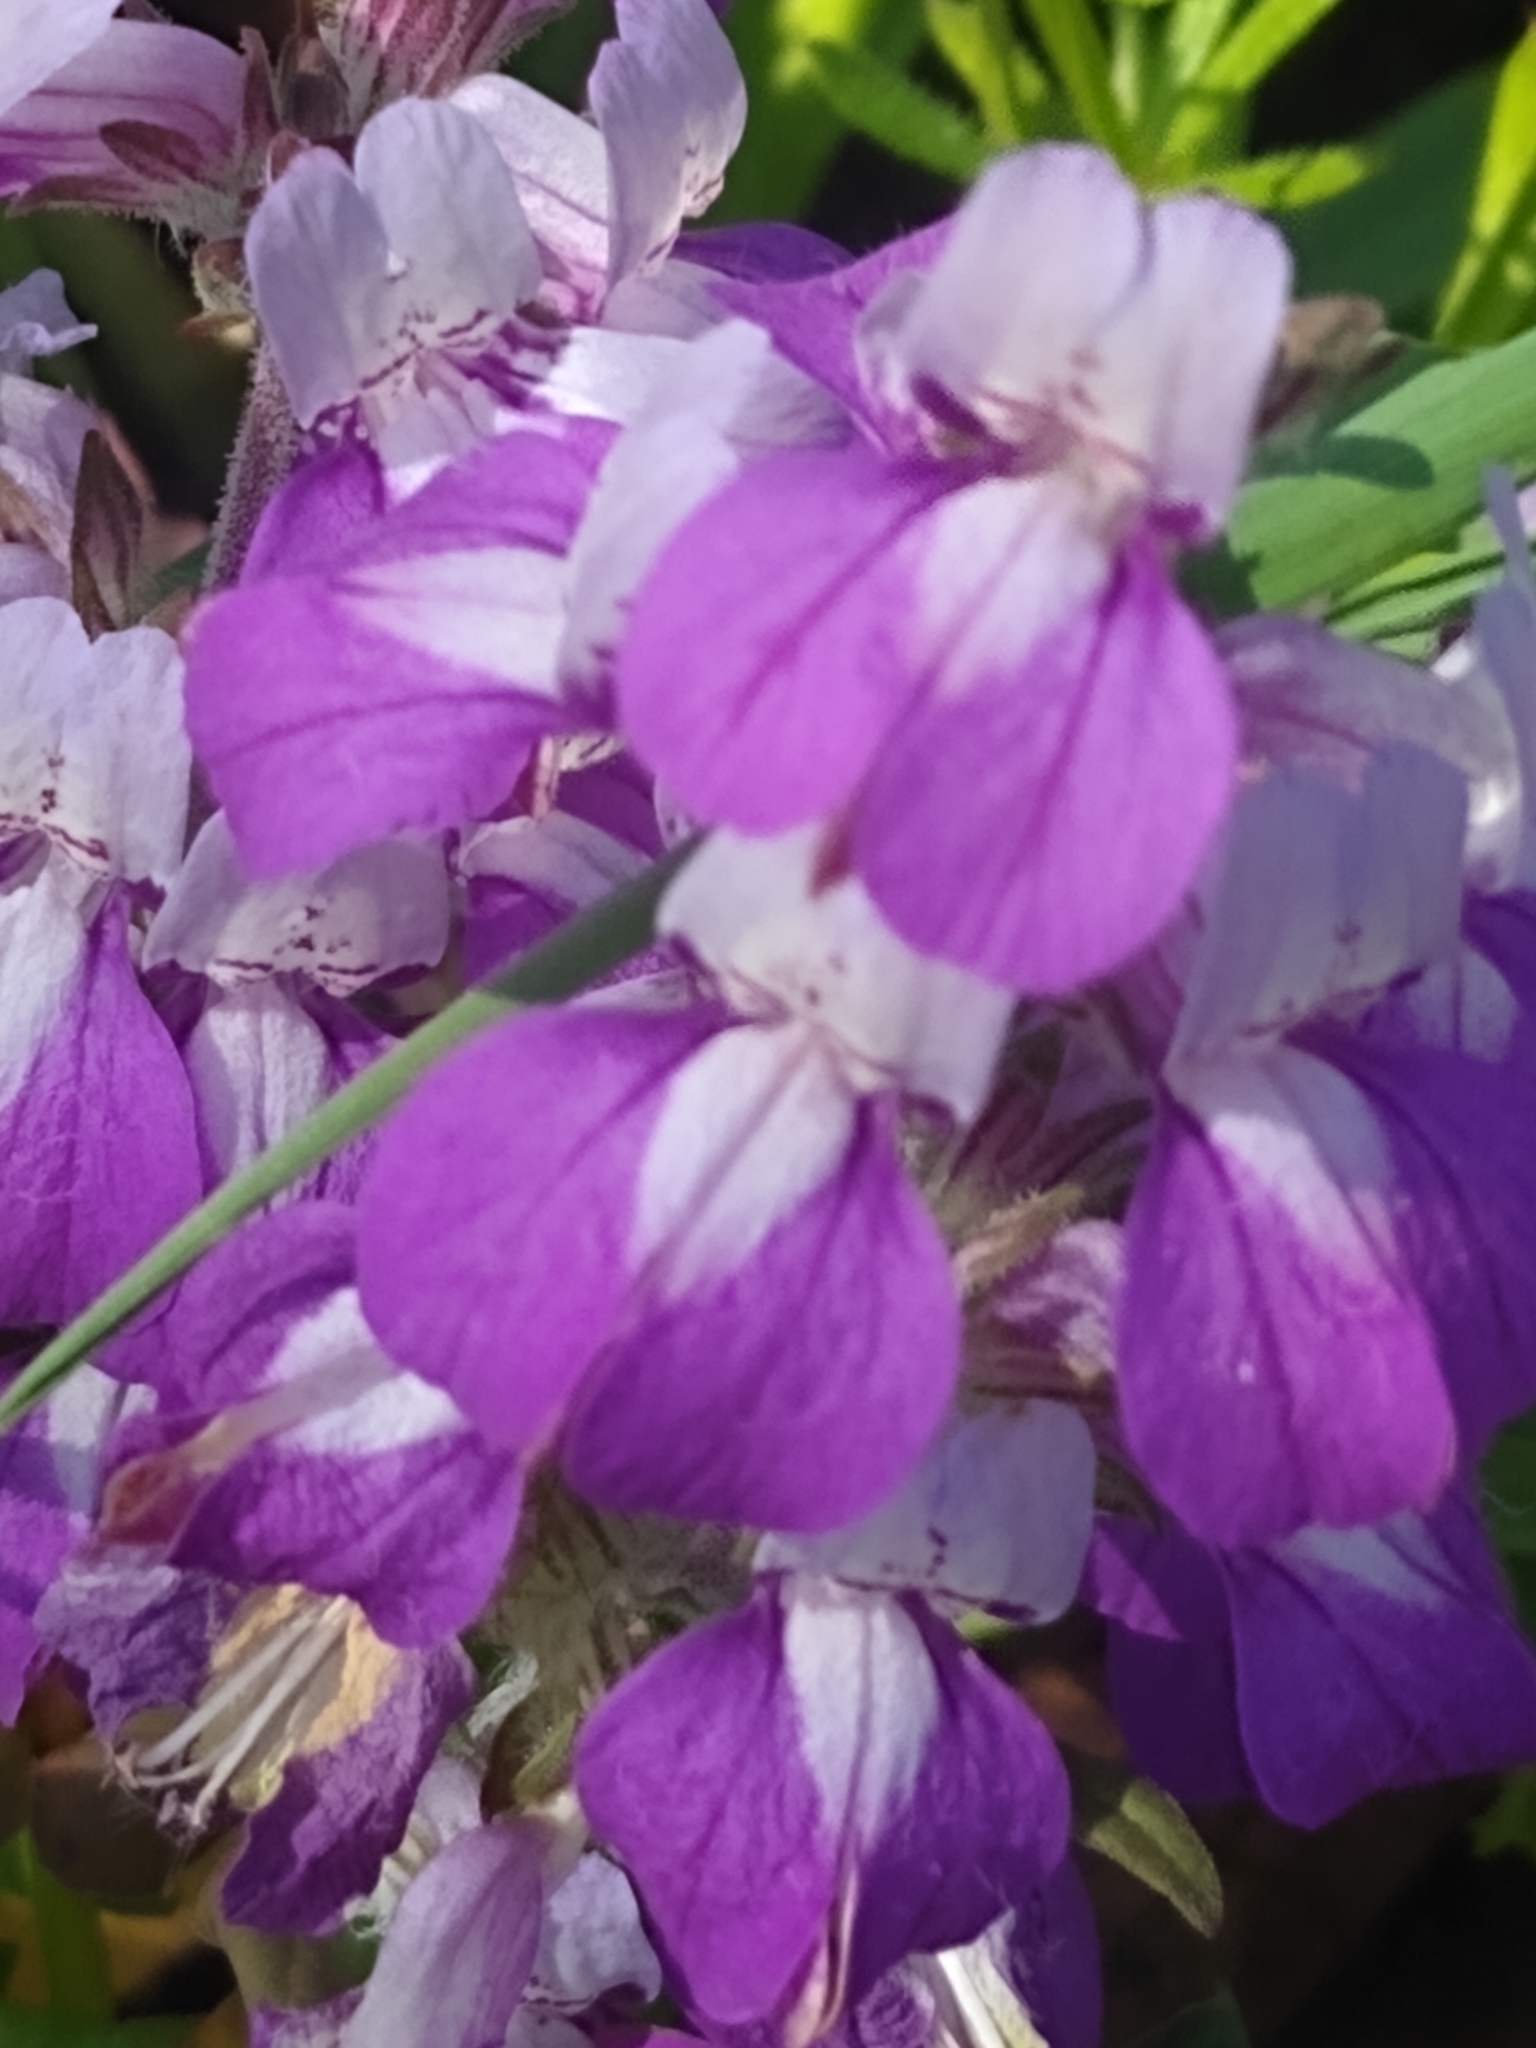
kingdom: Plantae
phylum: Tracheophyta
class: Magnoliopsida
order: Lamiales
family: Plantaginaceae
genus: Collinsia
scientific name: Collinsia heterophylla
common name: Chinese-houses
